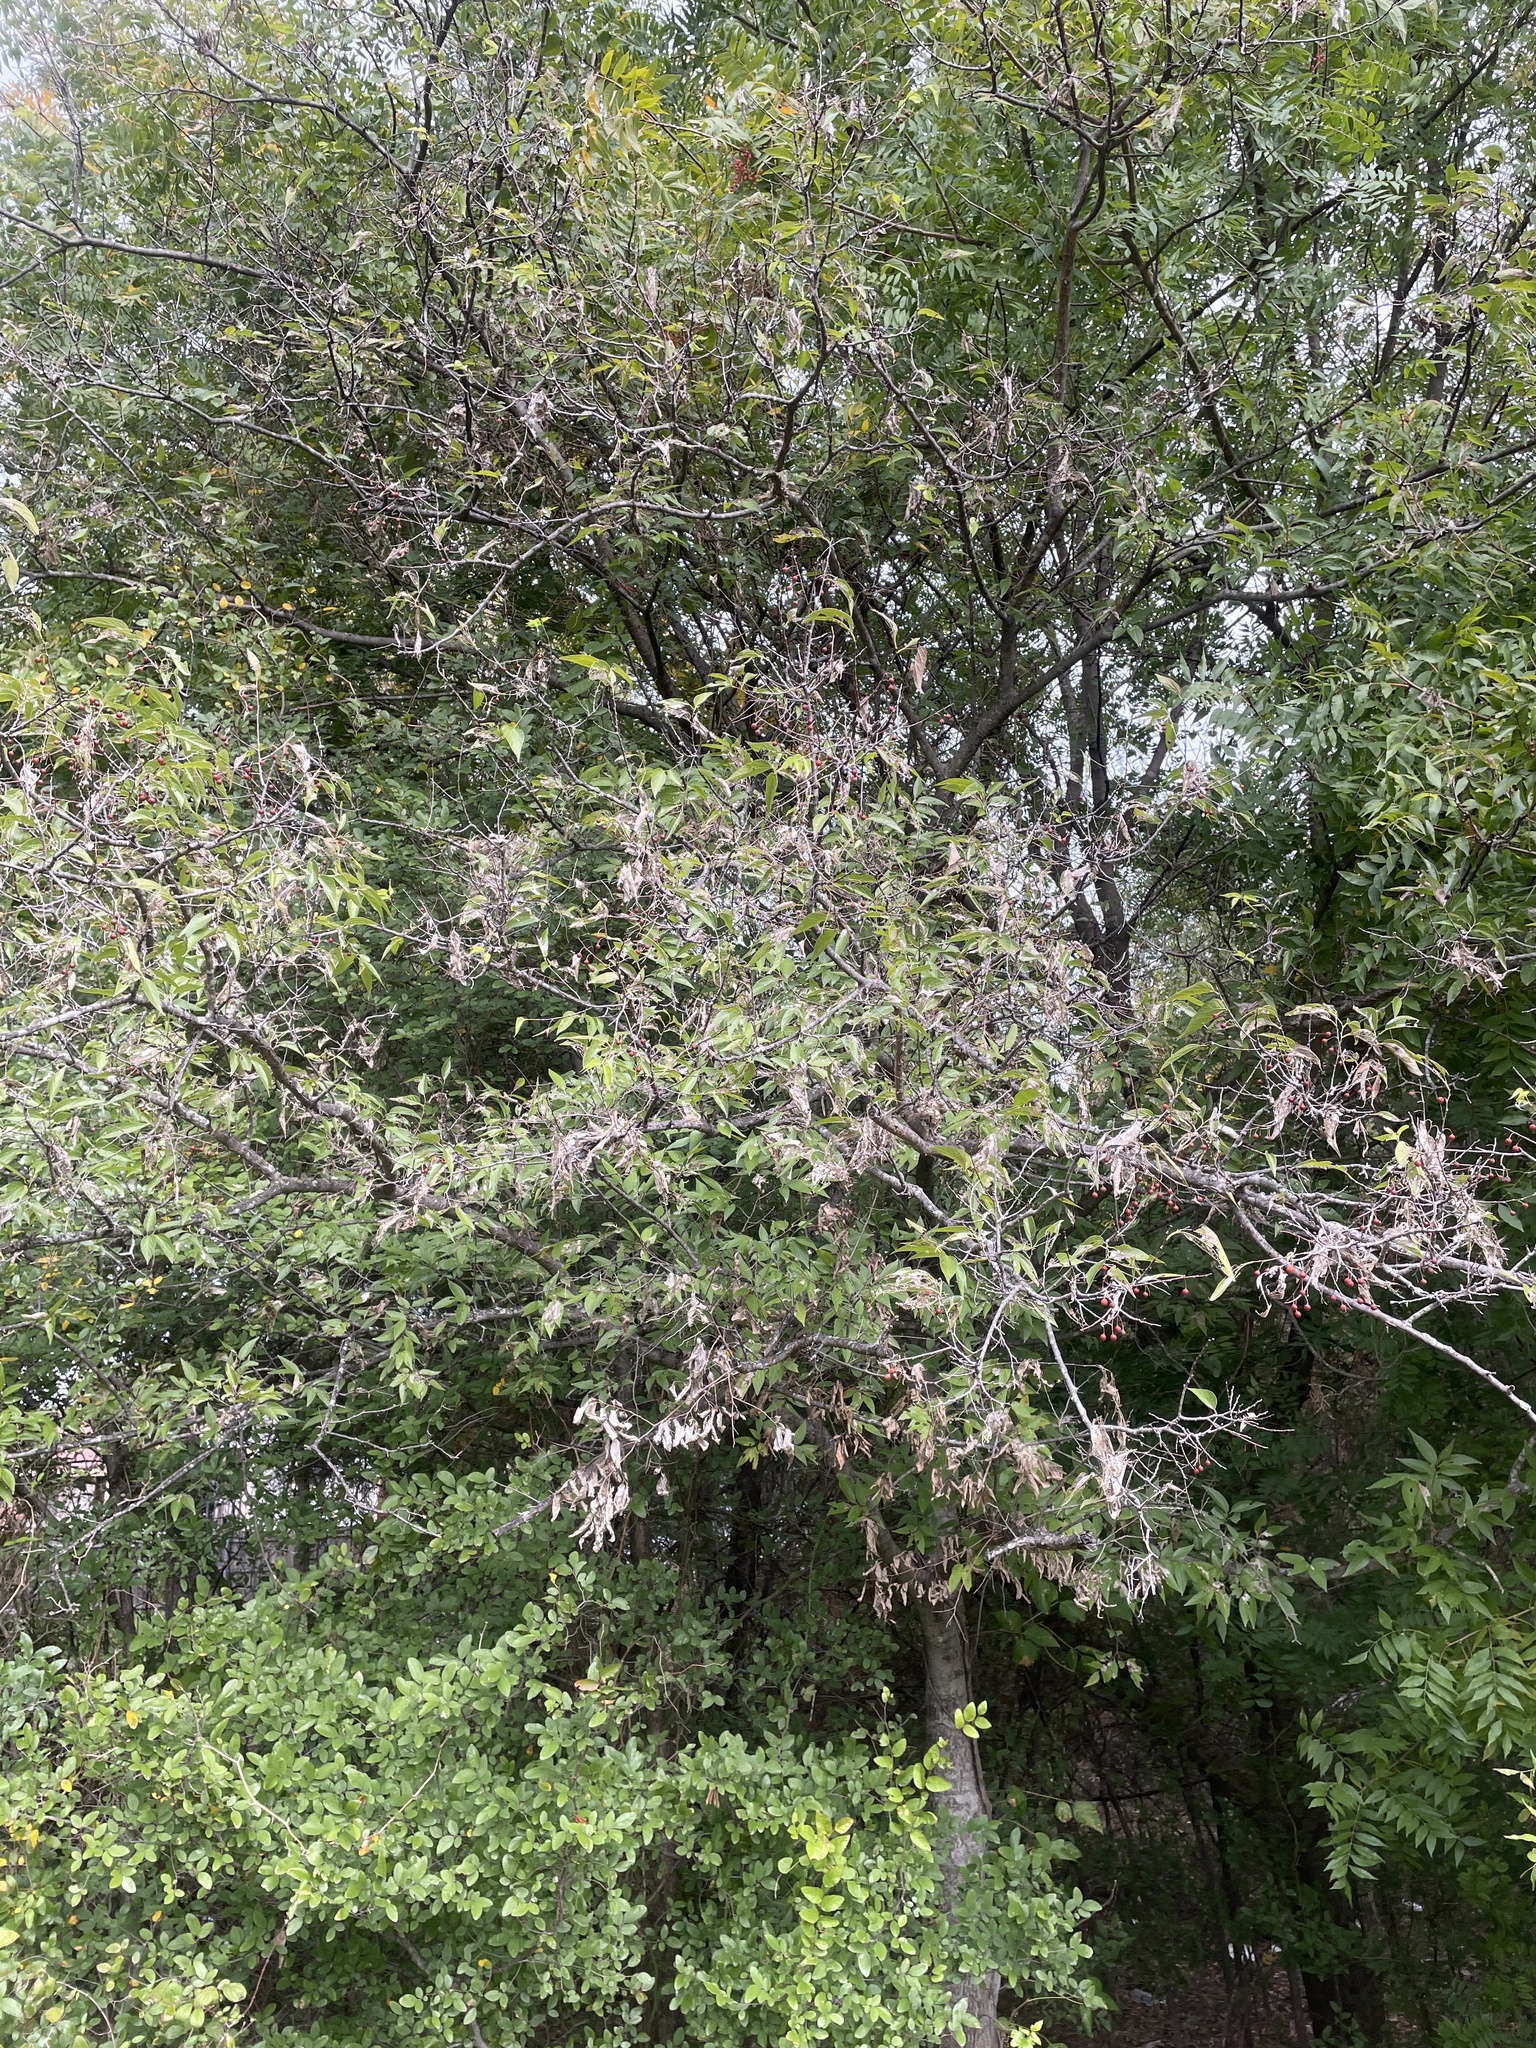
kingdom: Plantae
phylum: Tracheophyta
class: Magnoliopsida
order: Rosales
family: Cannabaceae
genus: Celtis
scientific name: Celtis laevigata
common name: Sugarberry
